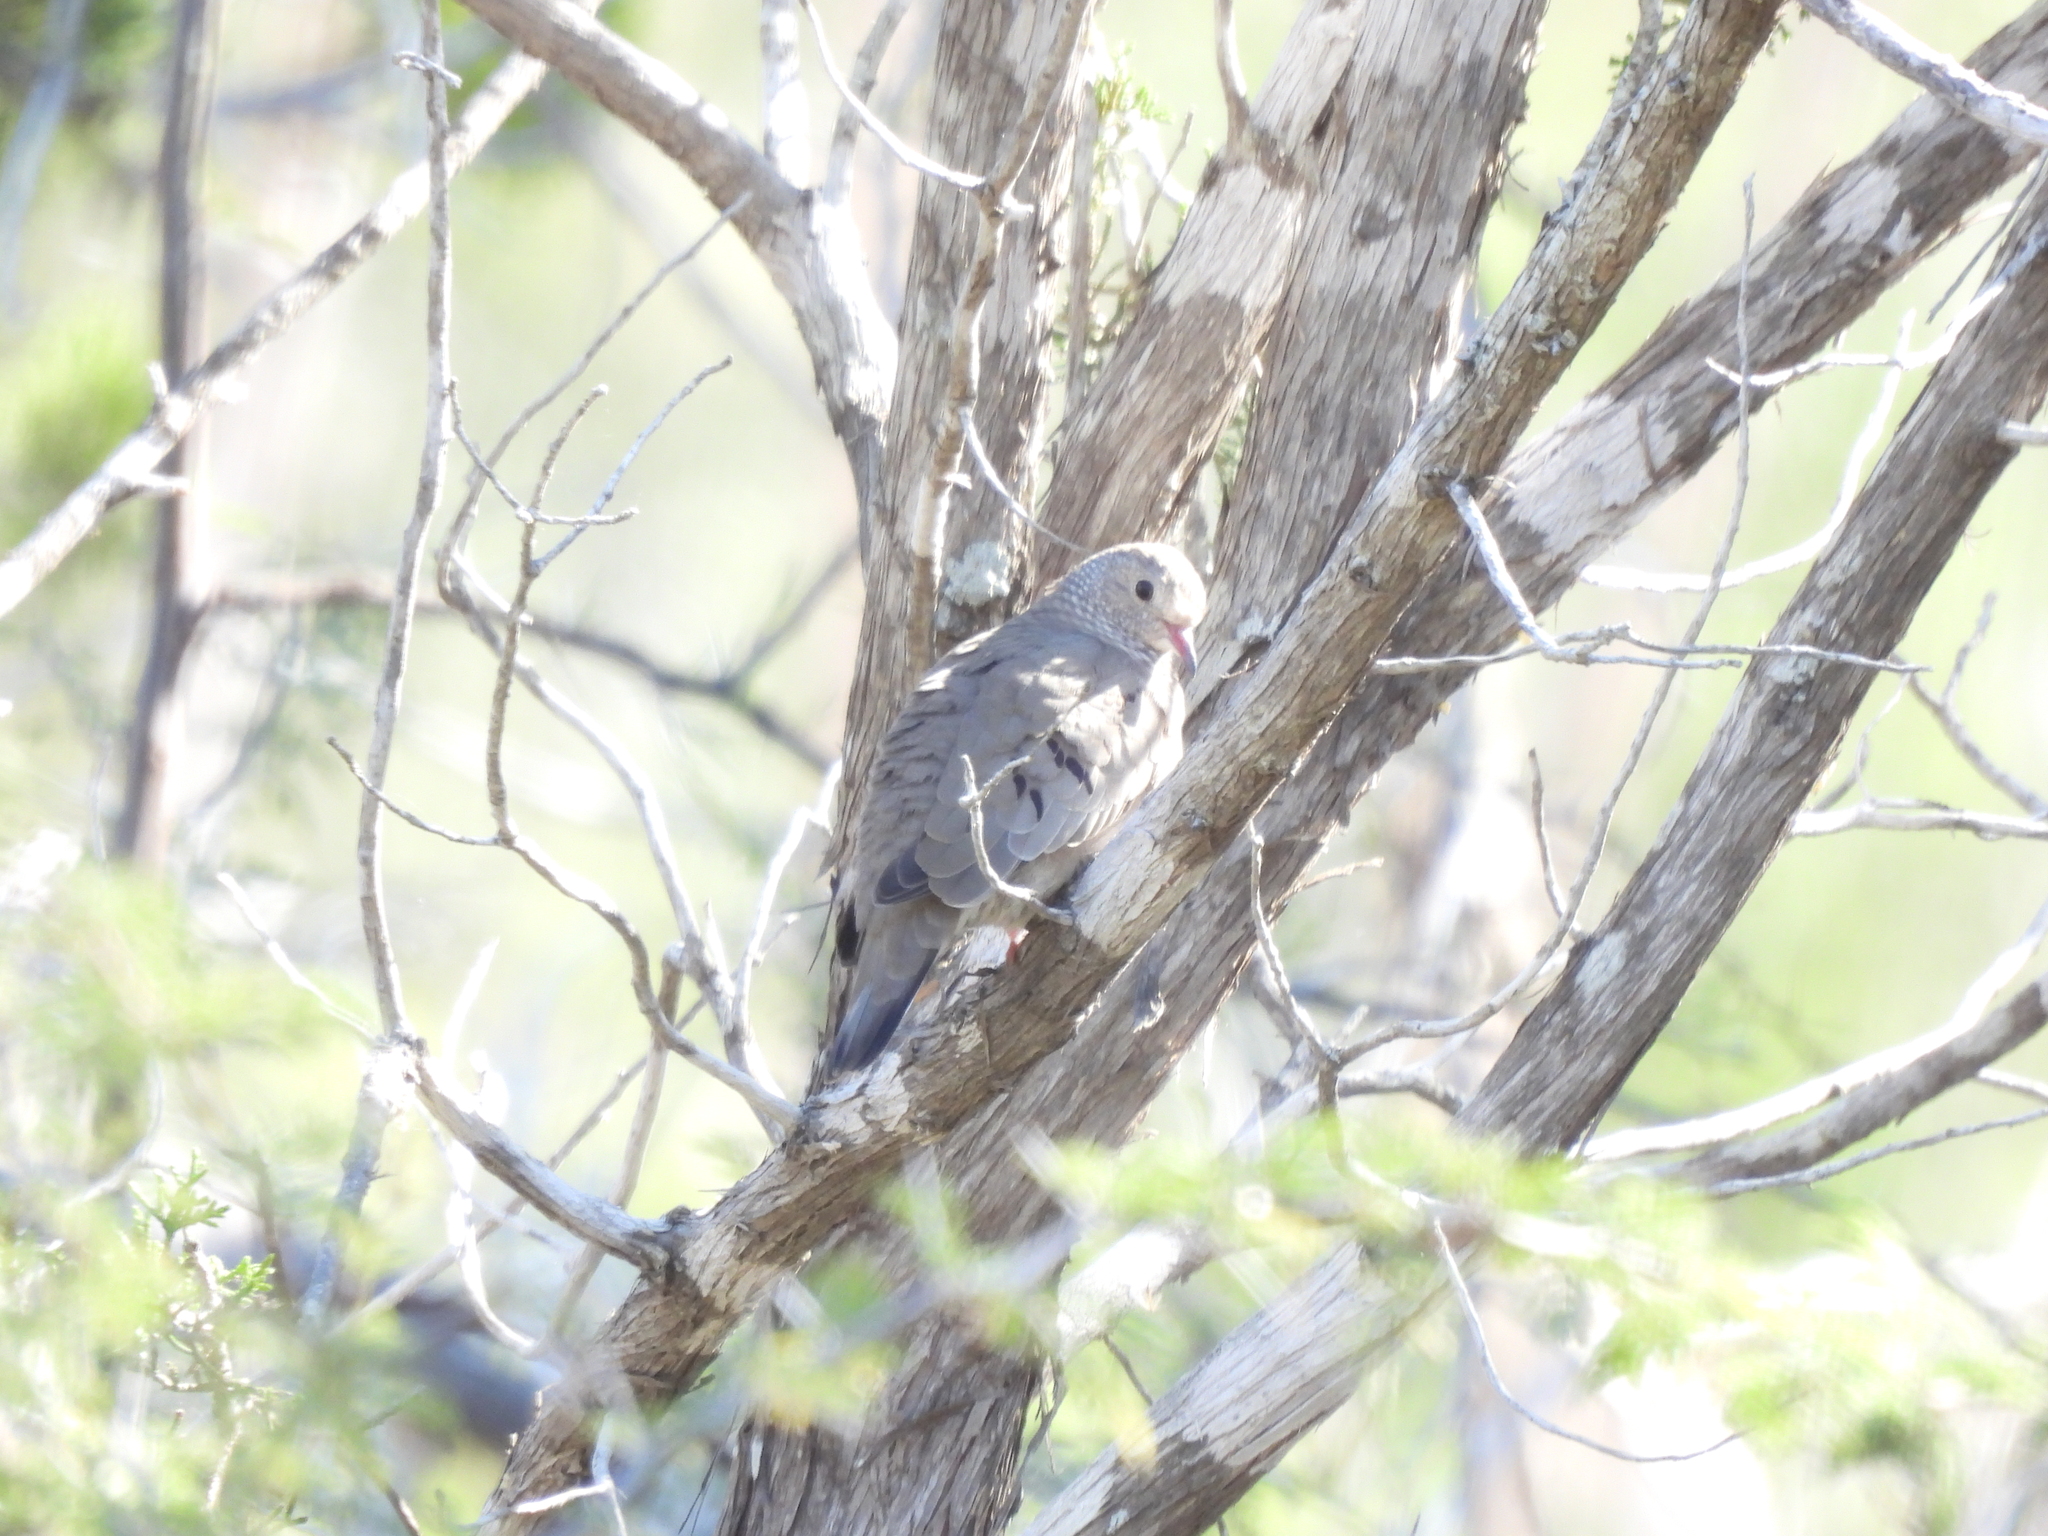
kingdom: Animalia
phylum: Chordata
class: Aves
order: Columbiformes
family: Columbidae
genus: Columbina
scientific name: Columbina passerina
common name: Common ground-dove
